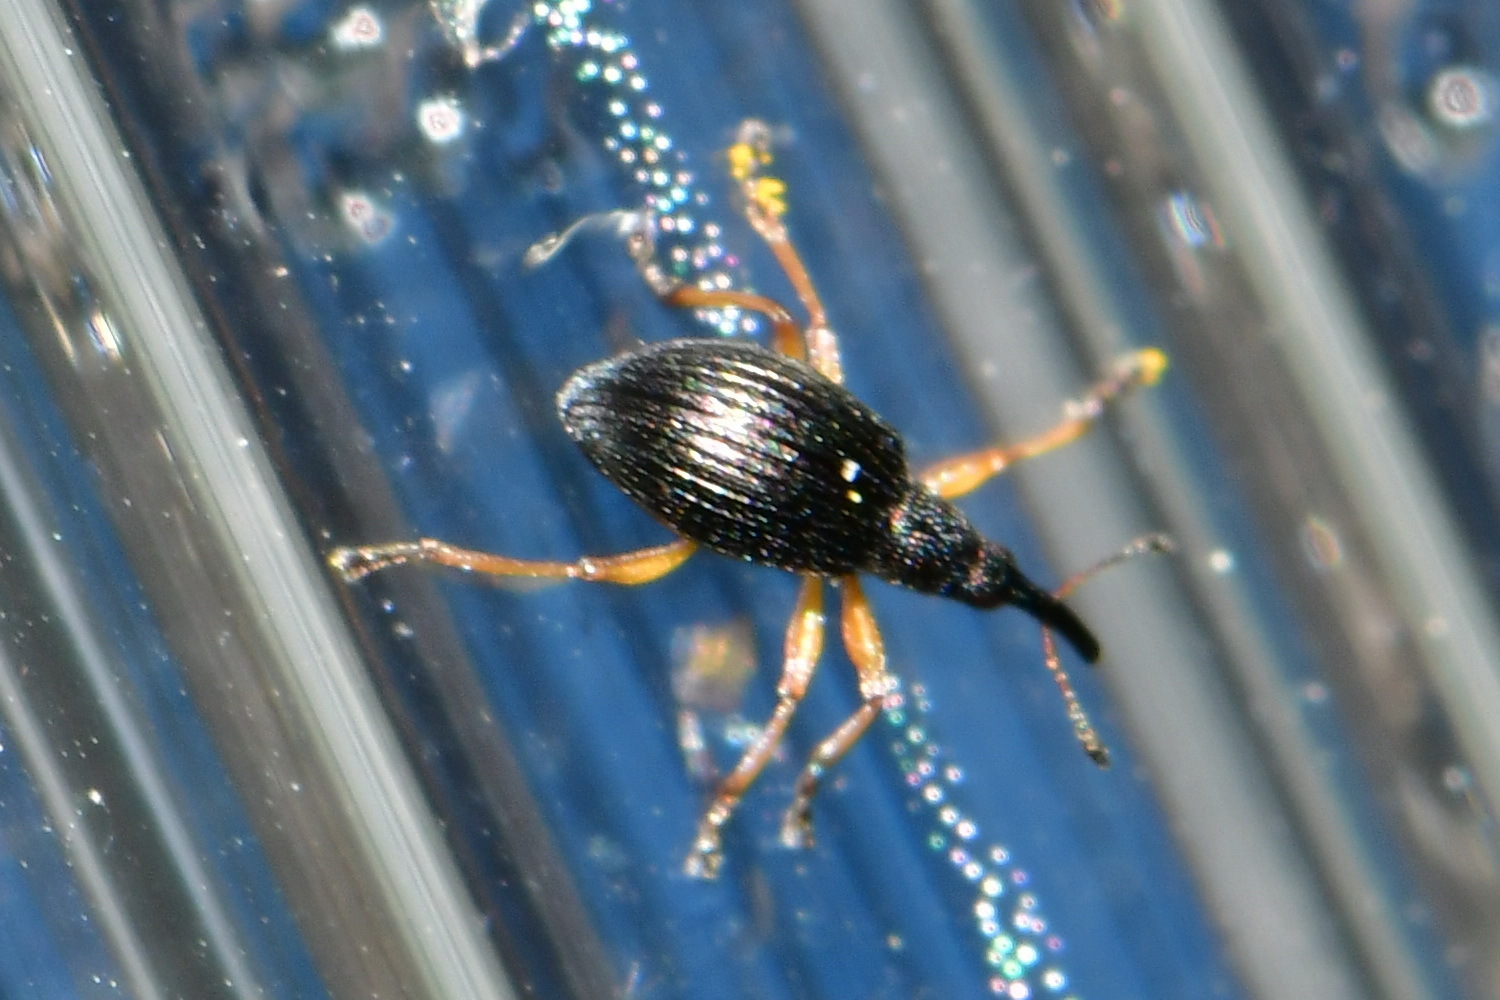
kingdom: Animalia
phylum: Arthropoda
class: Insecta
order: Coleoptera
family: Apionidae
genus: Protapion
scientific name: Protapion fulvipes
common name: White clover seed weevil
